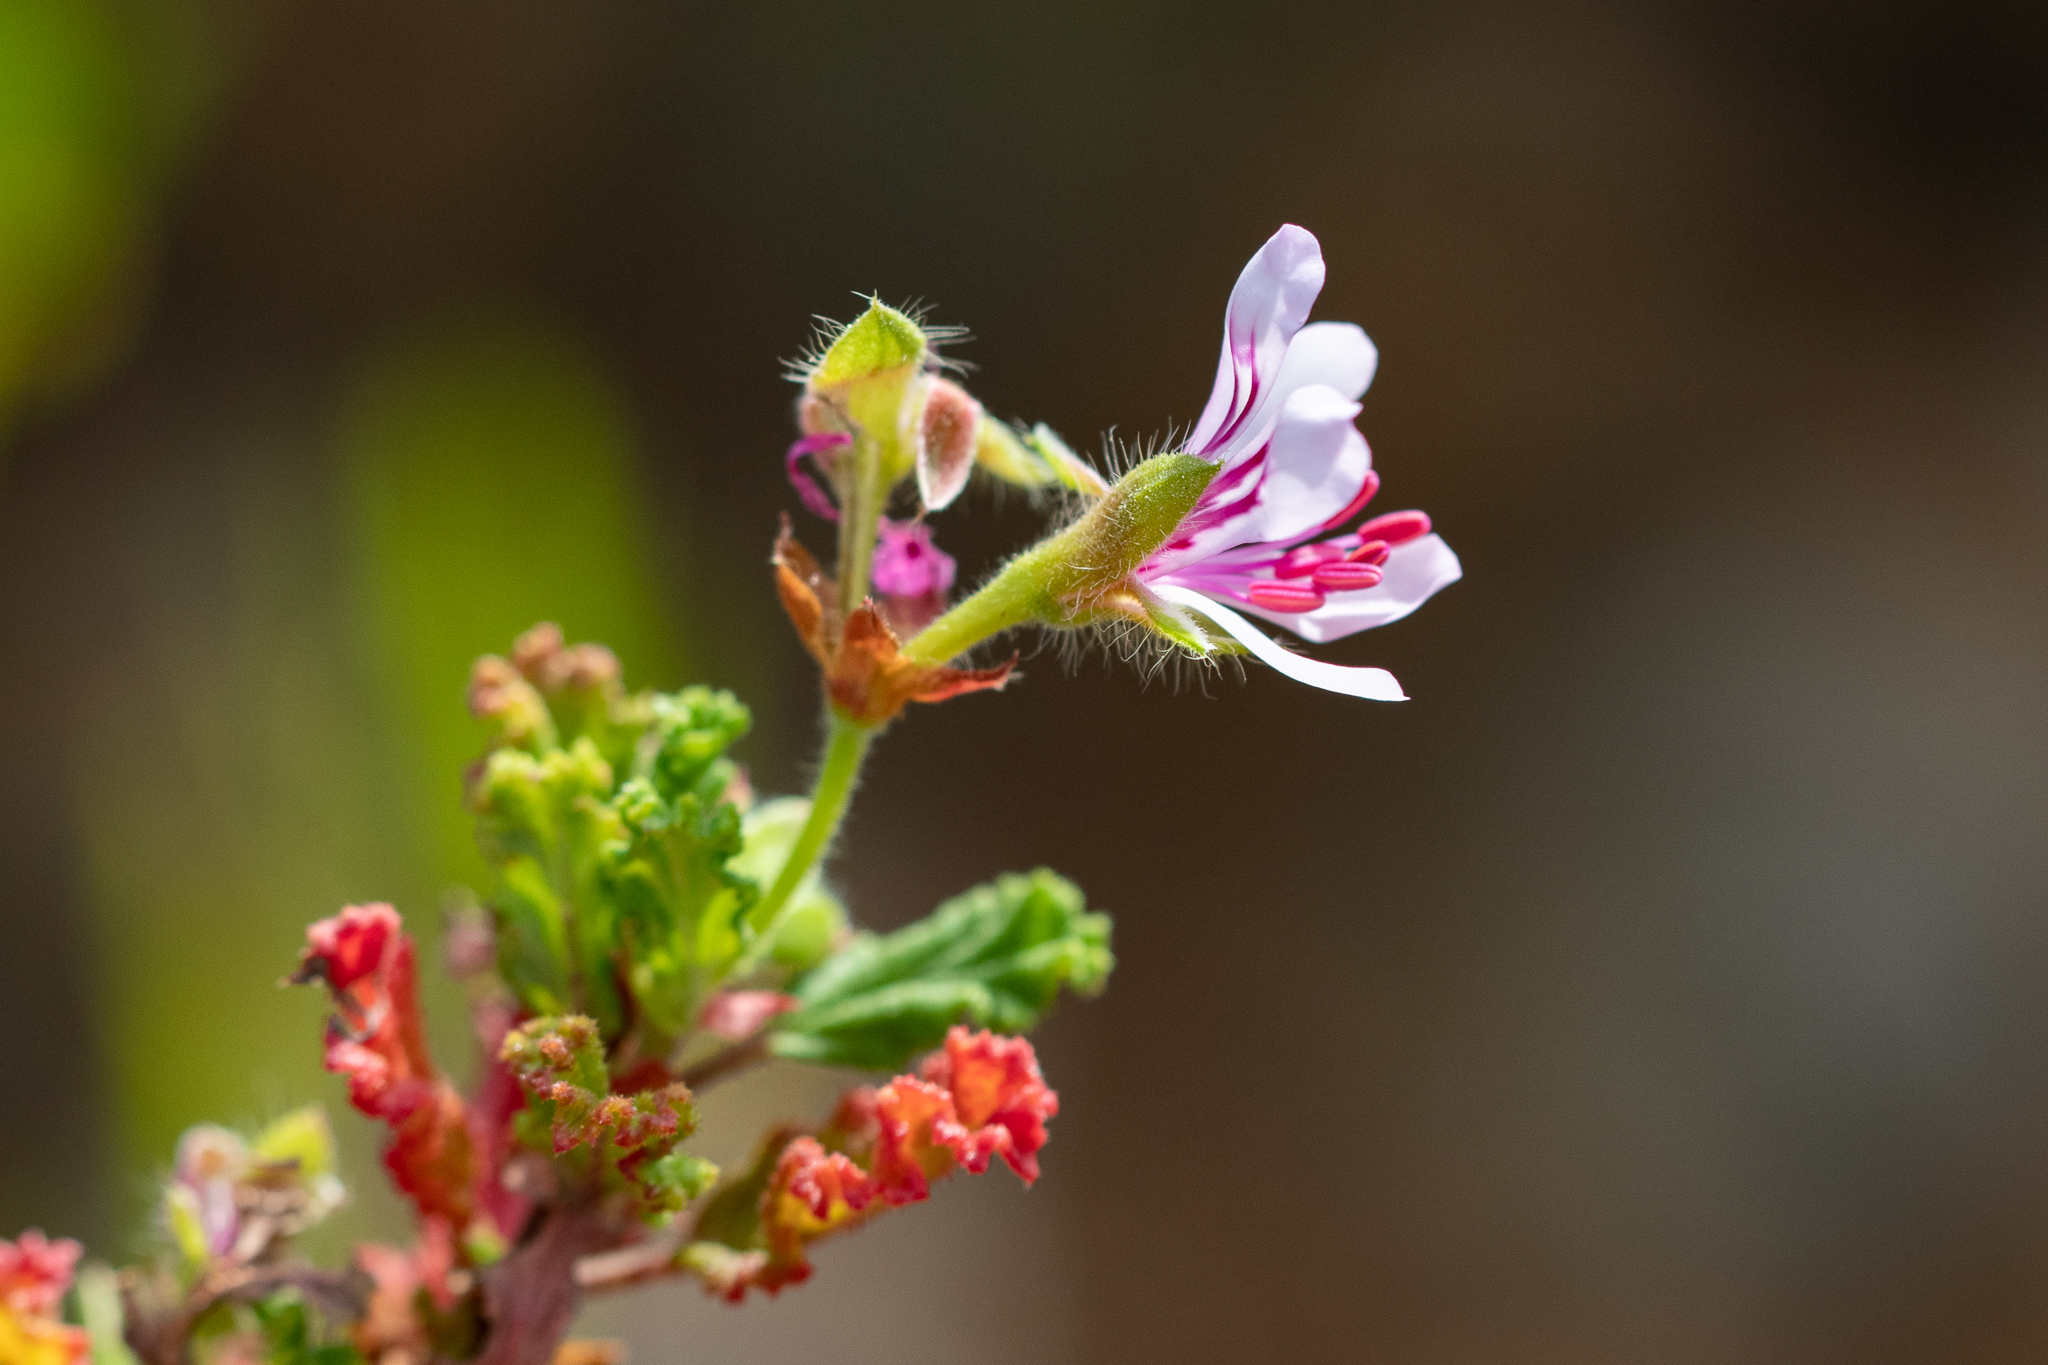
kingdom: Plantae
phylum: Tracheophyta
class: Magnoliopsida
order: Geraniales
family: Geraniaceae
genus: Pelargonium
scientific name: Pelargonium panduriforme
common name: Oakleaf garden geranium
